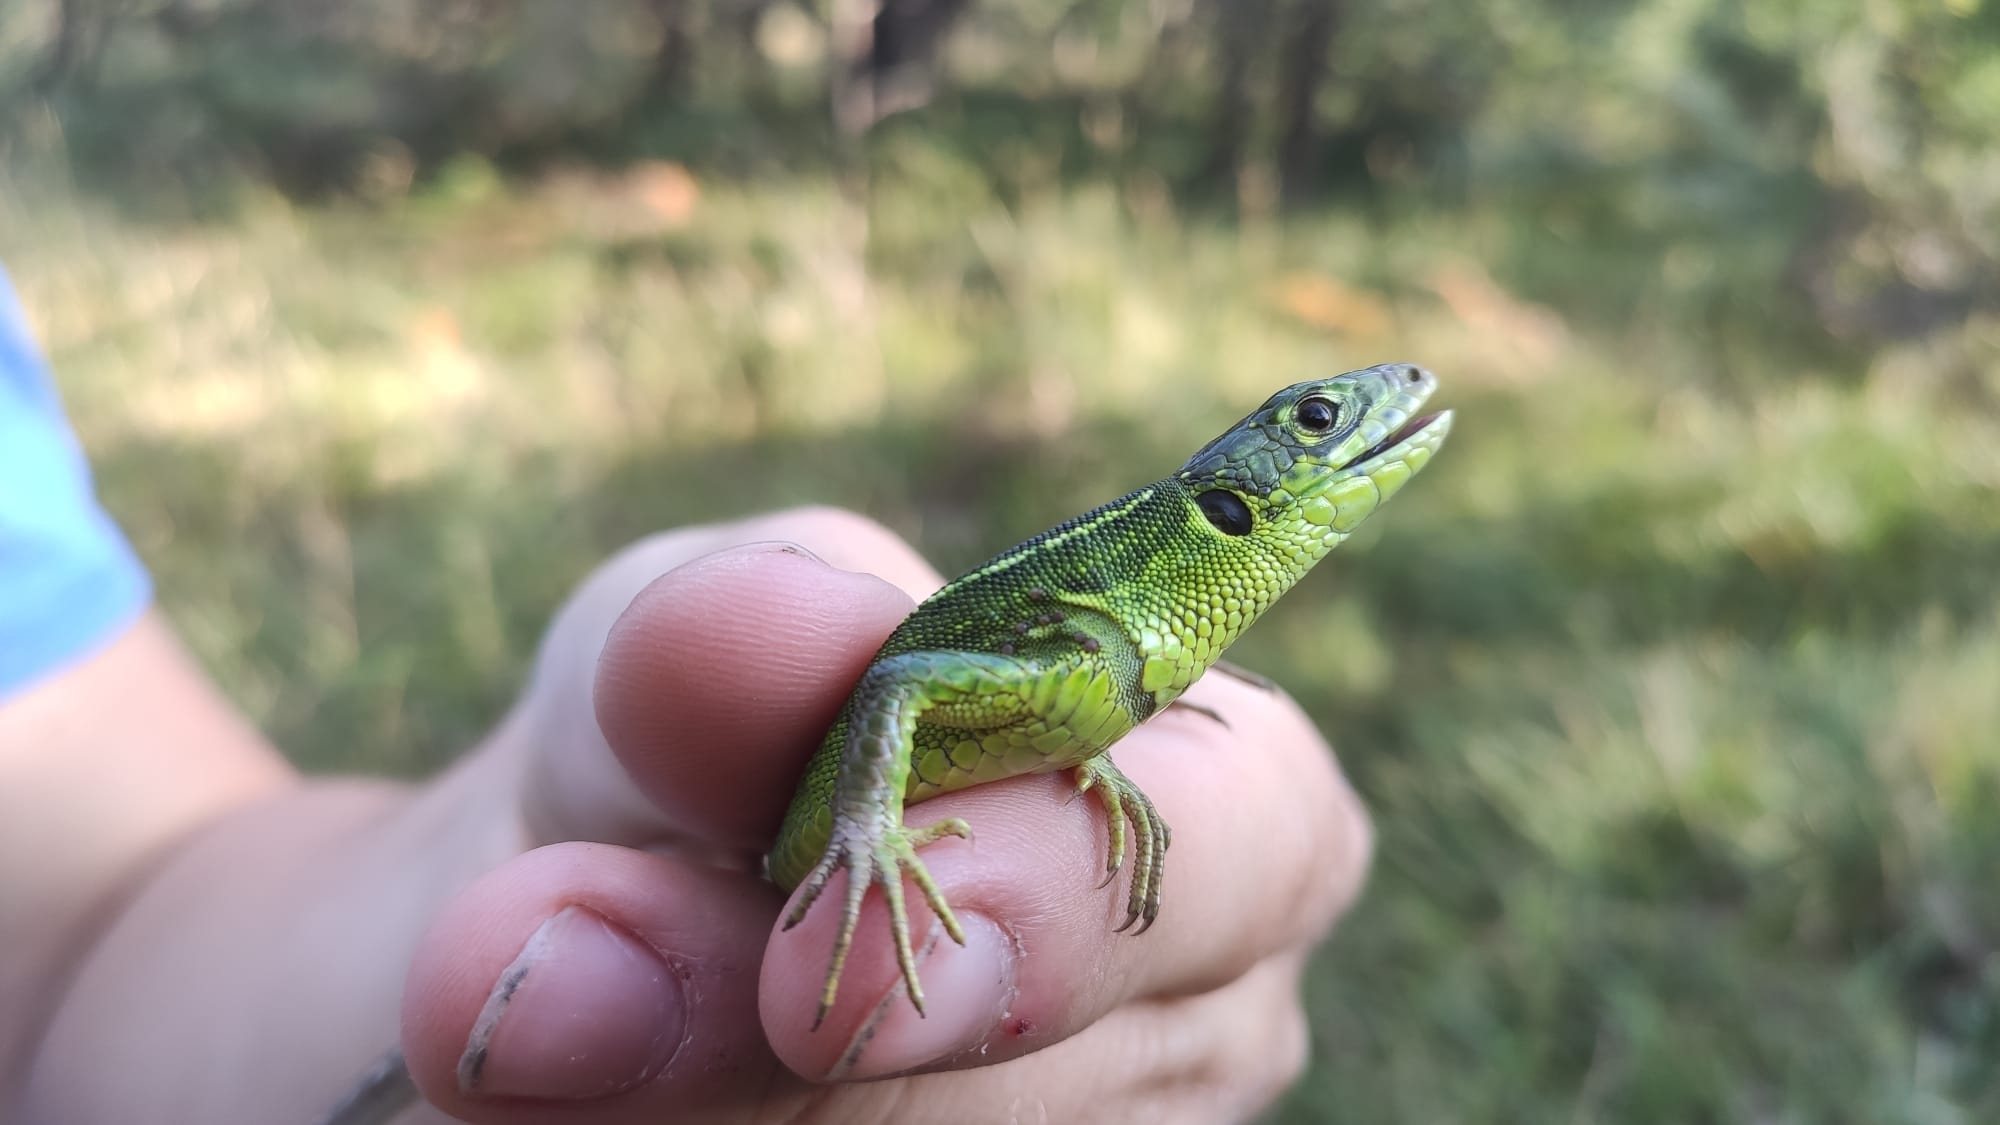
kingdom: Animalia
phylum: Chordata
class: Squamata
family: Lacertidae
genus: Lacerta
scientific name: Lacerta bilineata
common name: Western green lizard
